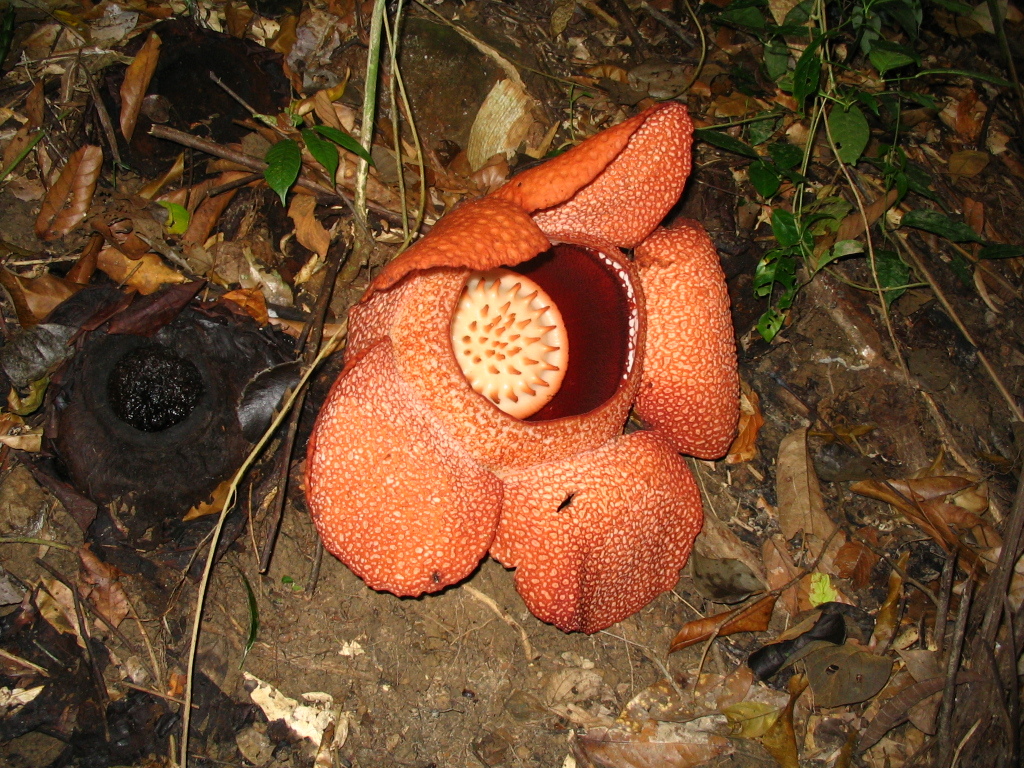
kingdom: Plantae
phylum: Tracheophyta
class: Magnoliopsida
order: Malpighiales
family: Rafflesiaceae
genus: Rafflesia
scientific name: Rafflesia keithii
